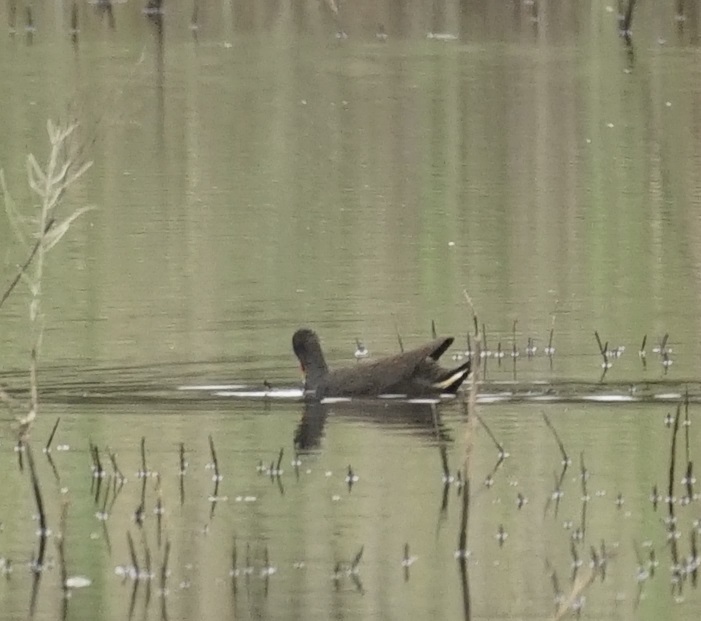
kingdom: Animalia
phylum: Chordata
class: Aves
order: Gruiformes
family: Rallidae
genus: Gallinula
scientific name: Gallinula tenebrosa
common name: Dusky moorhen
